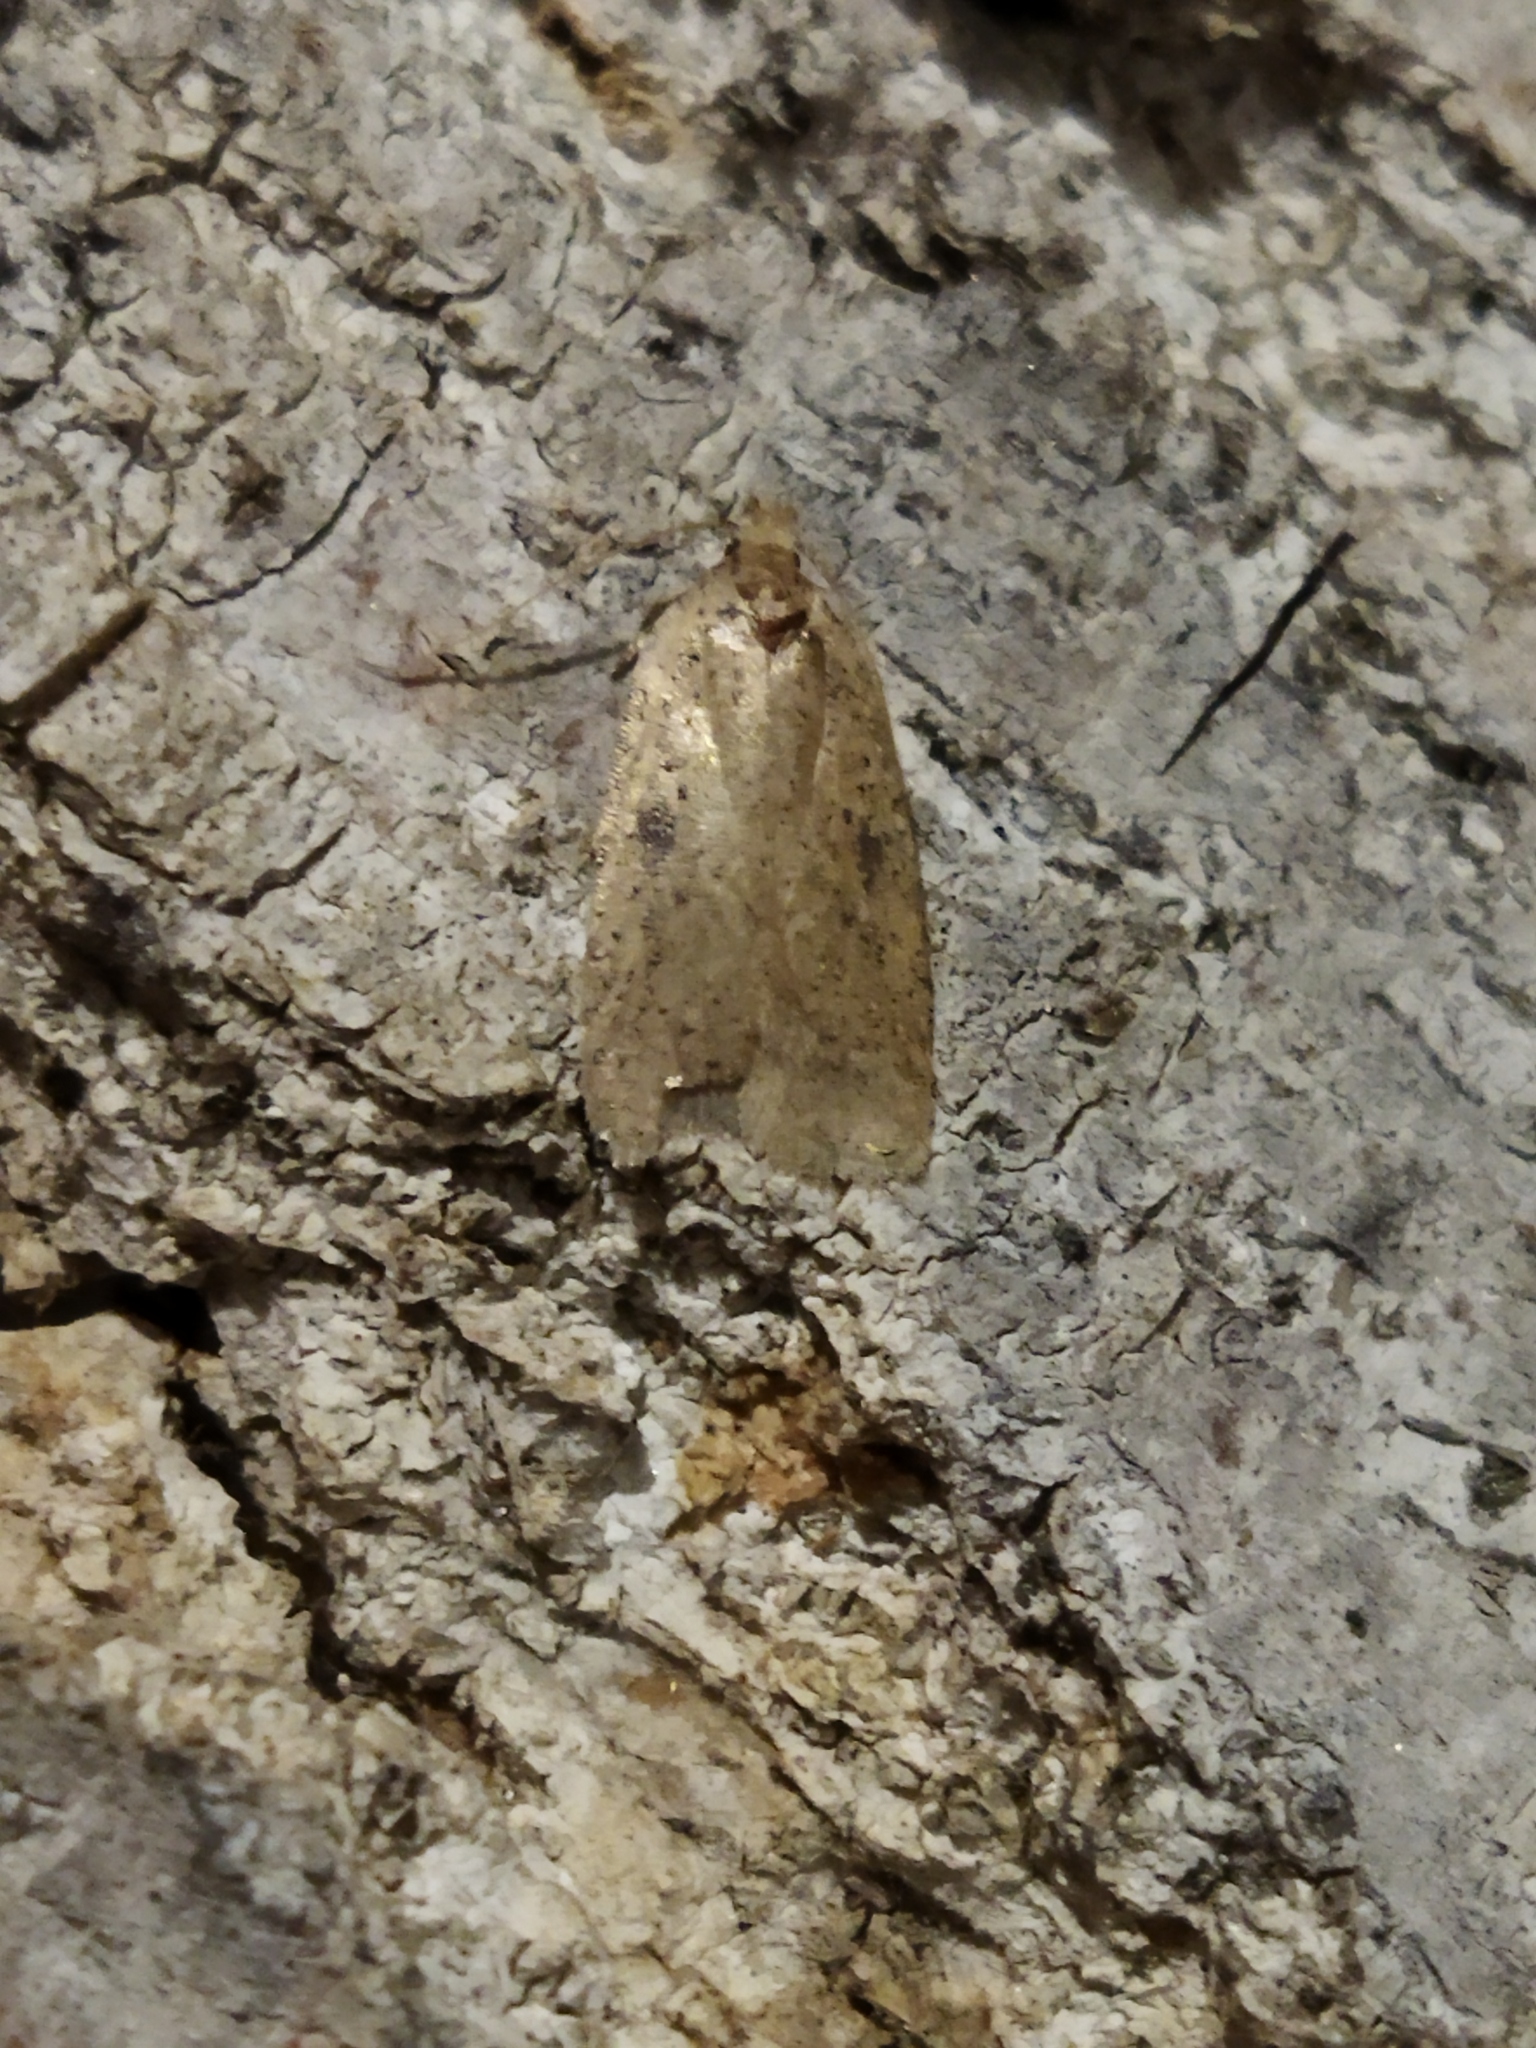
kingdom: Animalia
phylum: Arthropoda
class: Insecta
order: Lepidoptera
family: Depressariidae
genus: Agonopterix
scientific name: Agonopterix arenella
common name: Brindled flat-body
